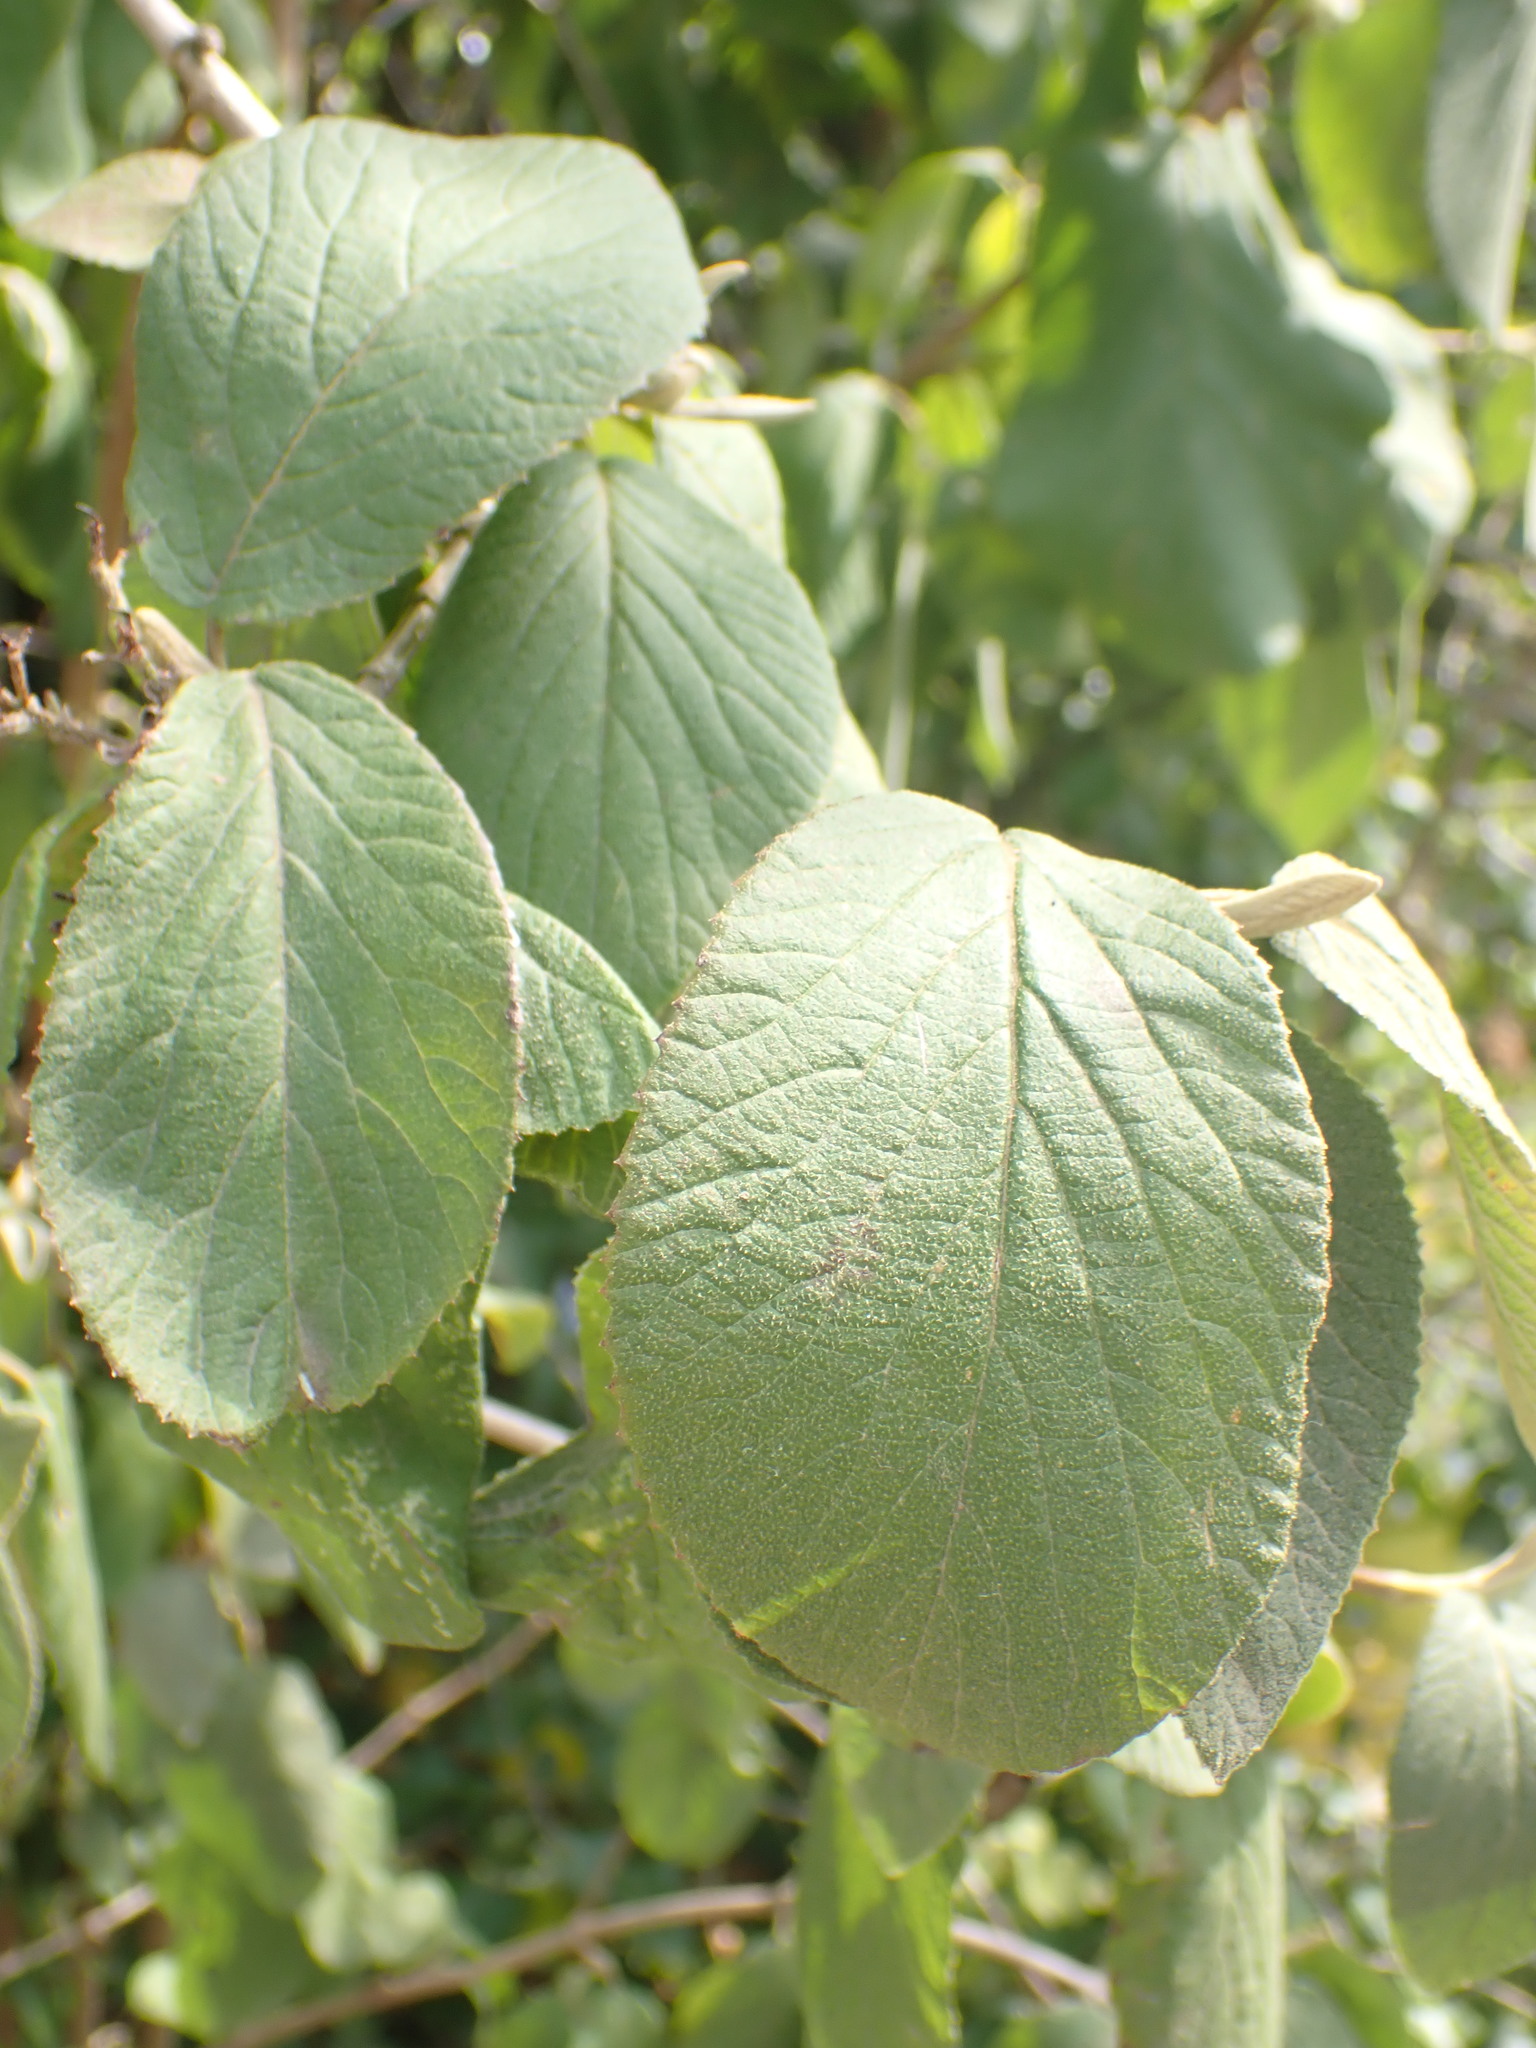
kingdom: Plantae
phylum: Tracheophyta
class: Magnoliopsida
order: Dipsacales
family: Viburnaceae
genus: Viburnum
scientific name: Viburnum lantana
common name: Wayfaring tree
